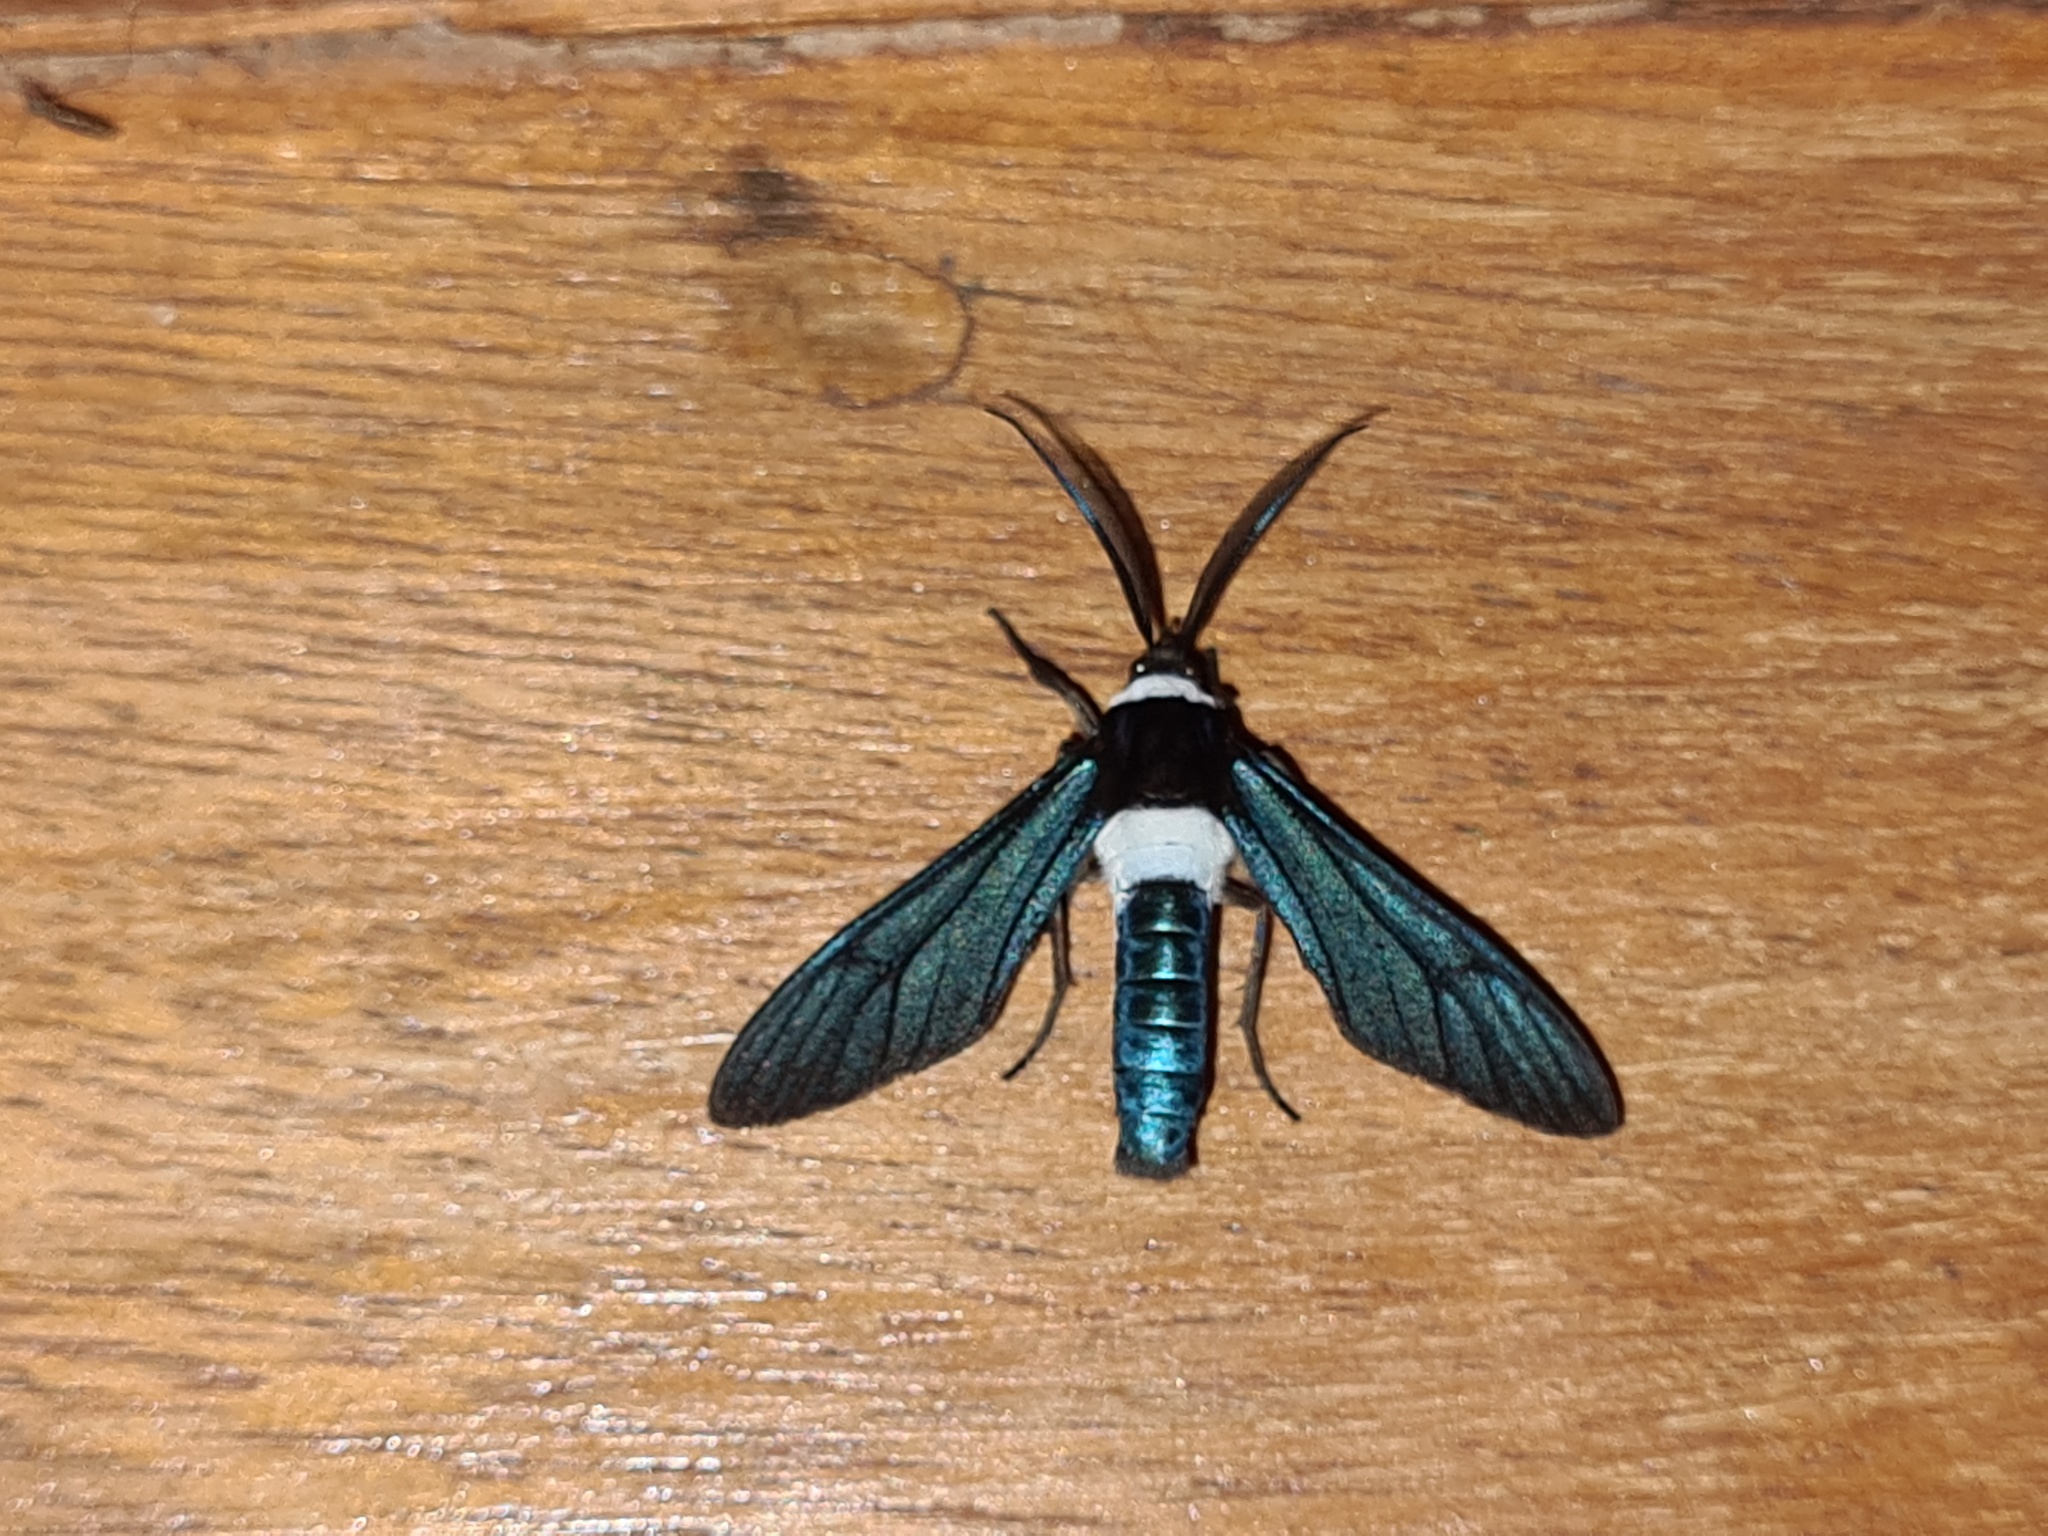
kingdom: Animalia
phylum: Arthropoda
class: Insecta
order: Lepidoptera
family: Erebidae
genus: Phaio
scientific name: Phaio albicincta
